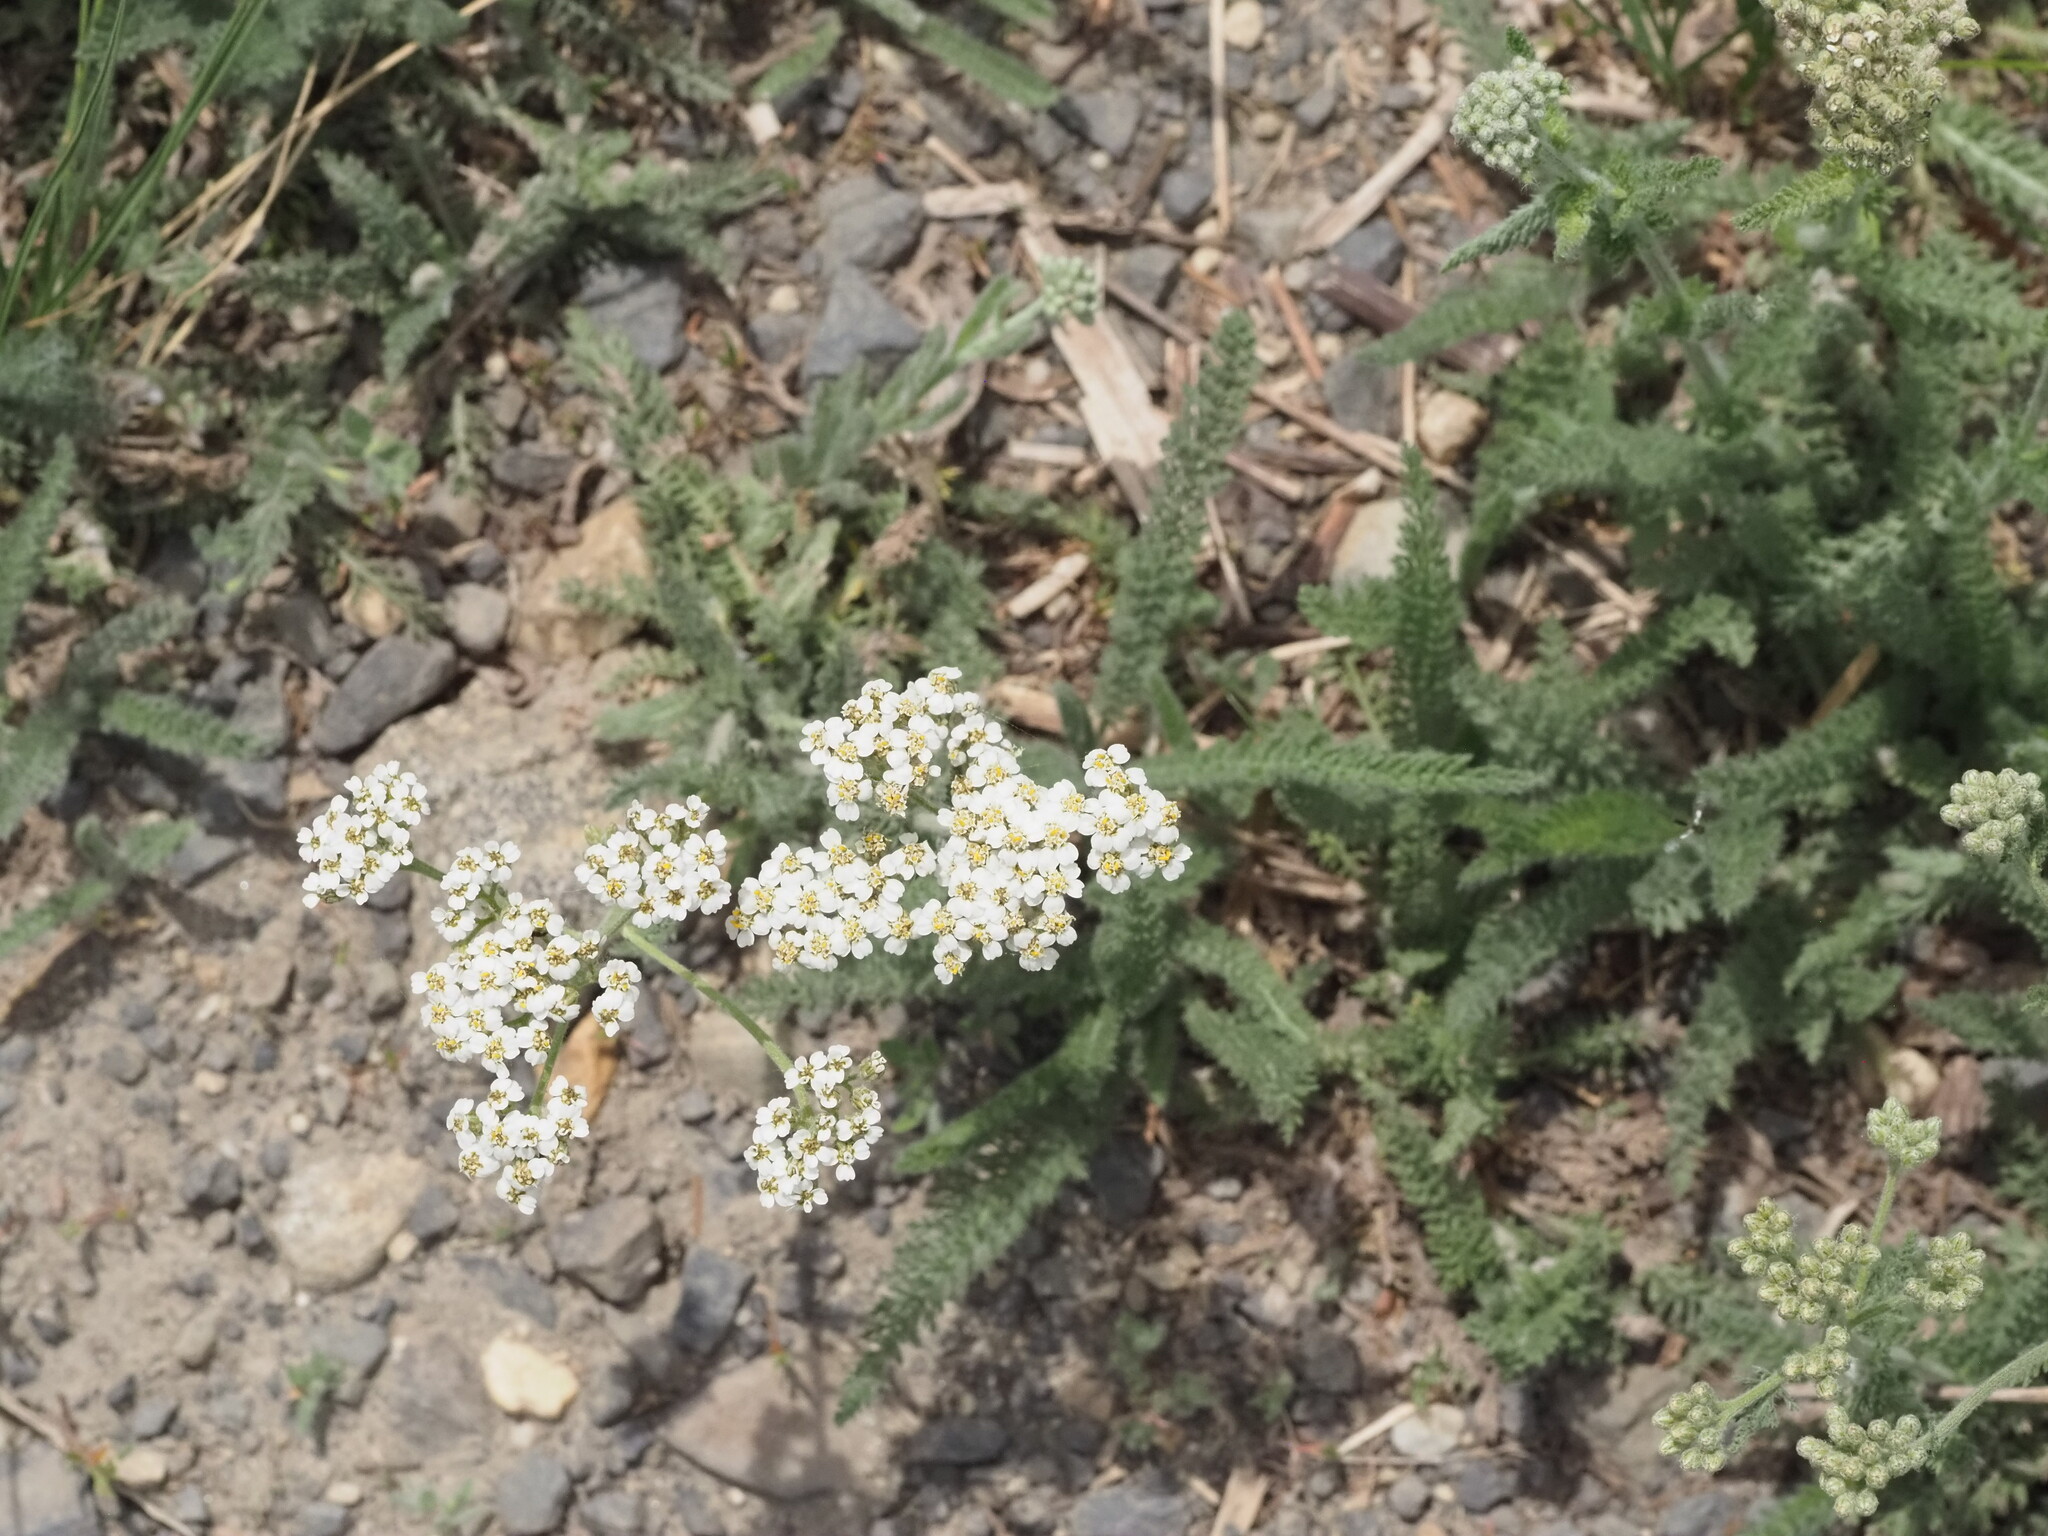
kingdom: Plantae
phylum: Tracheophyta
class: Magnoliopsida
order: Asterales
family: Asteraceae
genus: Achillea
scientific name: Achillea millefolium
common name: Yarrow
